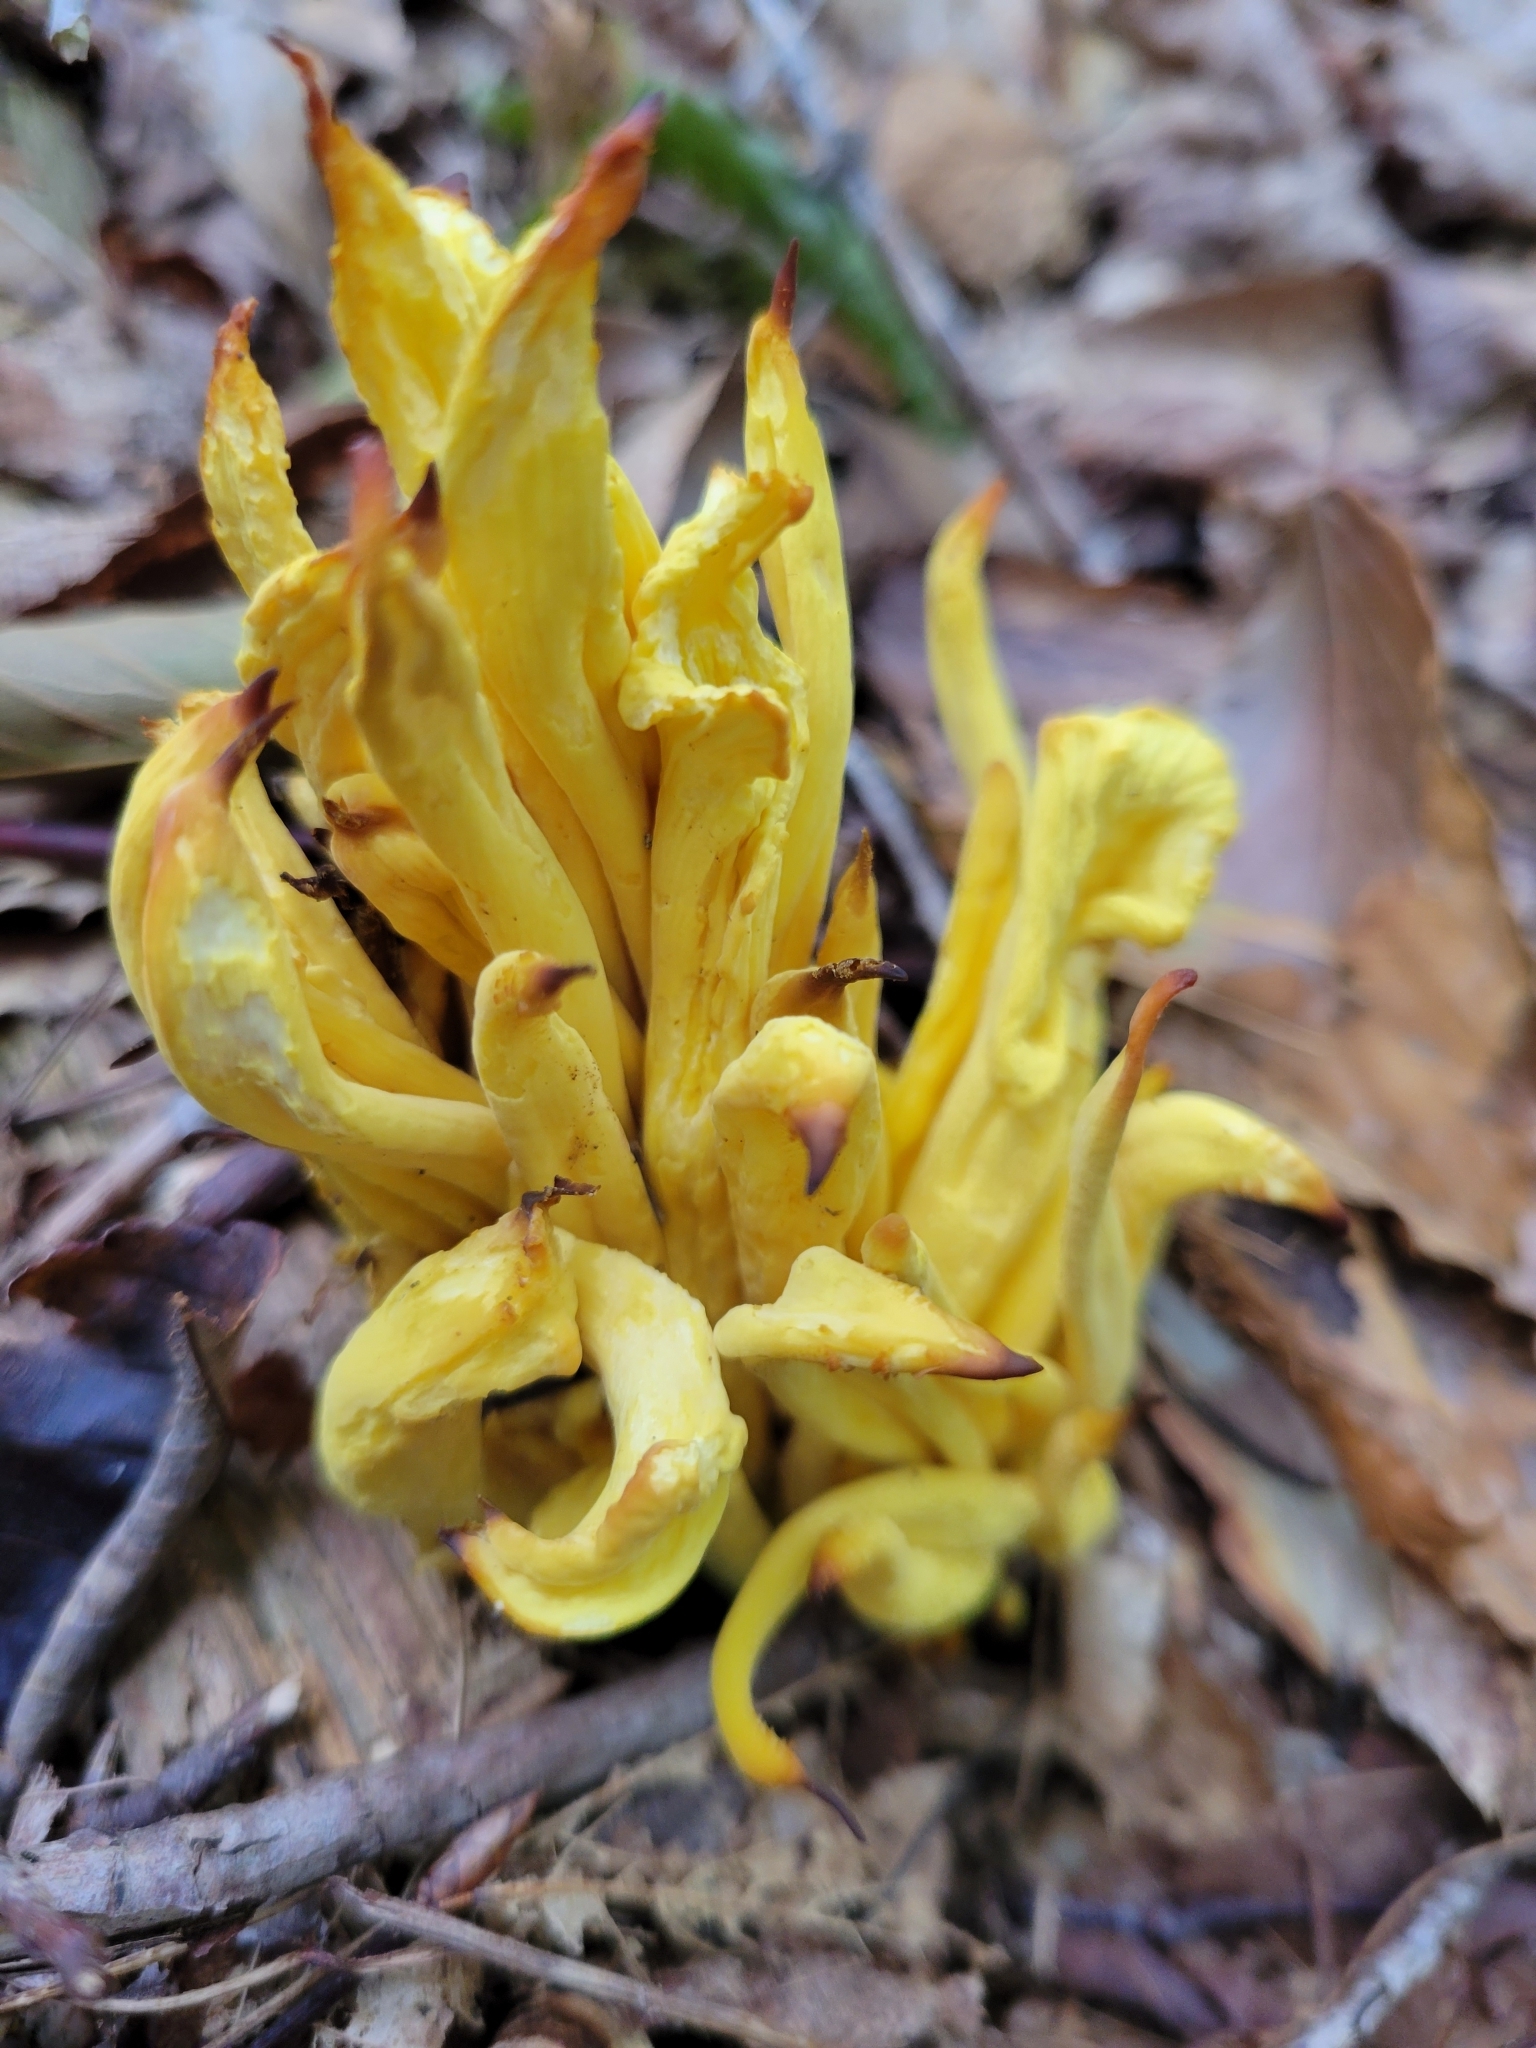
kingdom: Fungi
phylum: Basidiomycota
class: Agaricomycetes
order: Agaricales
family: Clavariaceae
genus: Clavulinopsis
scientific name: Clavulinopsis fusiformis
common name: Golden spindles
